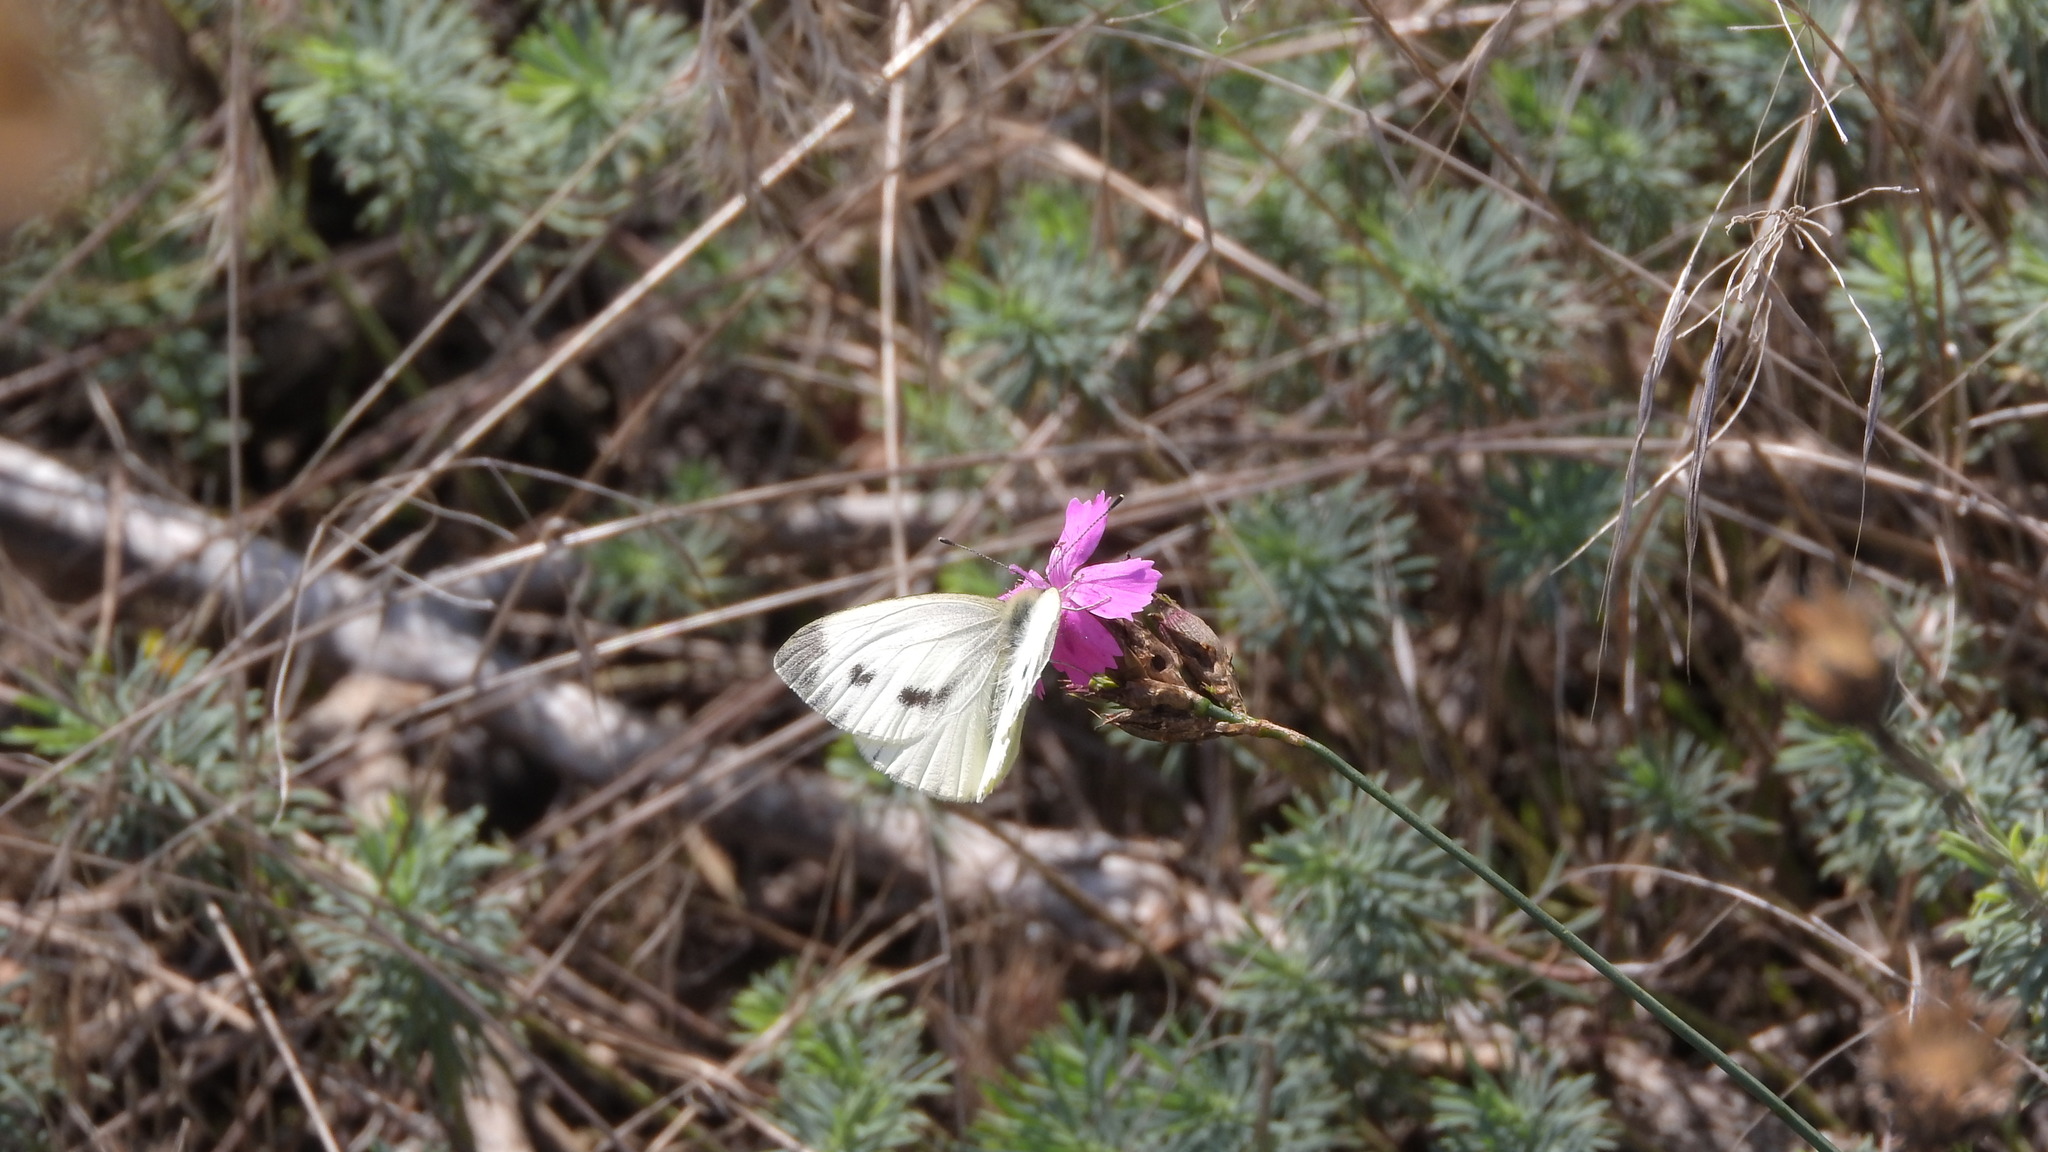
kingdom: Animalia
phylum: Arthropoda
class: Insecta
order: Lepidoptera
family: Pieridae
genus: Pieris
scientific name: Pieris napi
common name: Green-veined white
